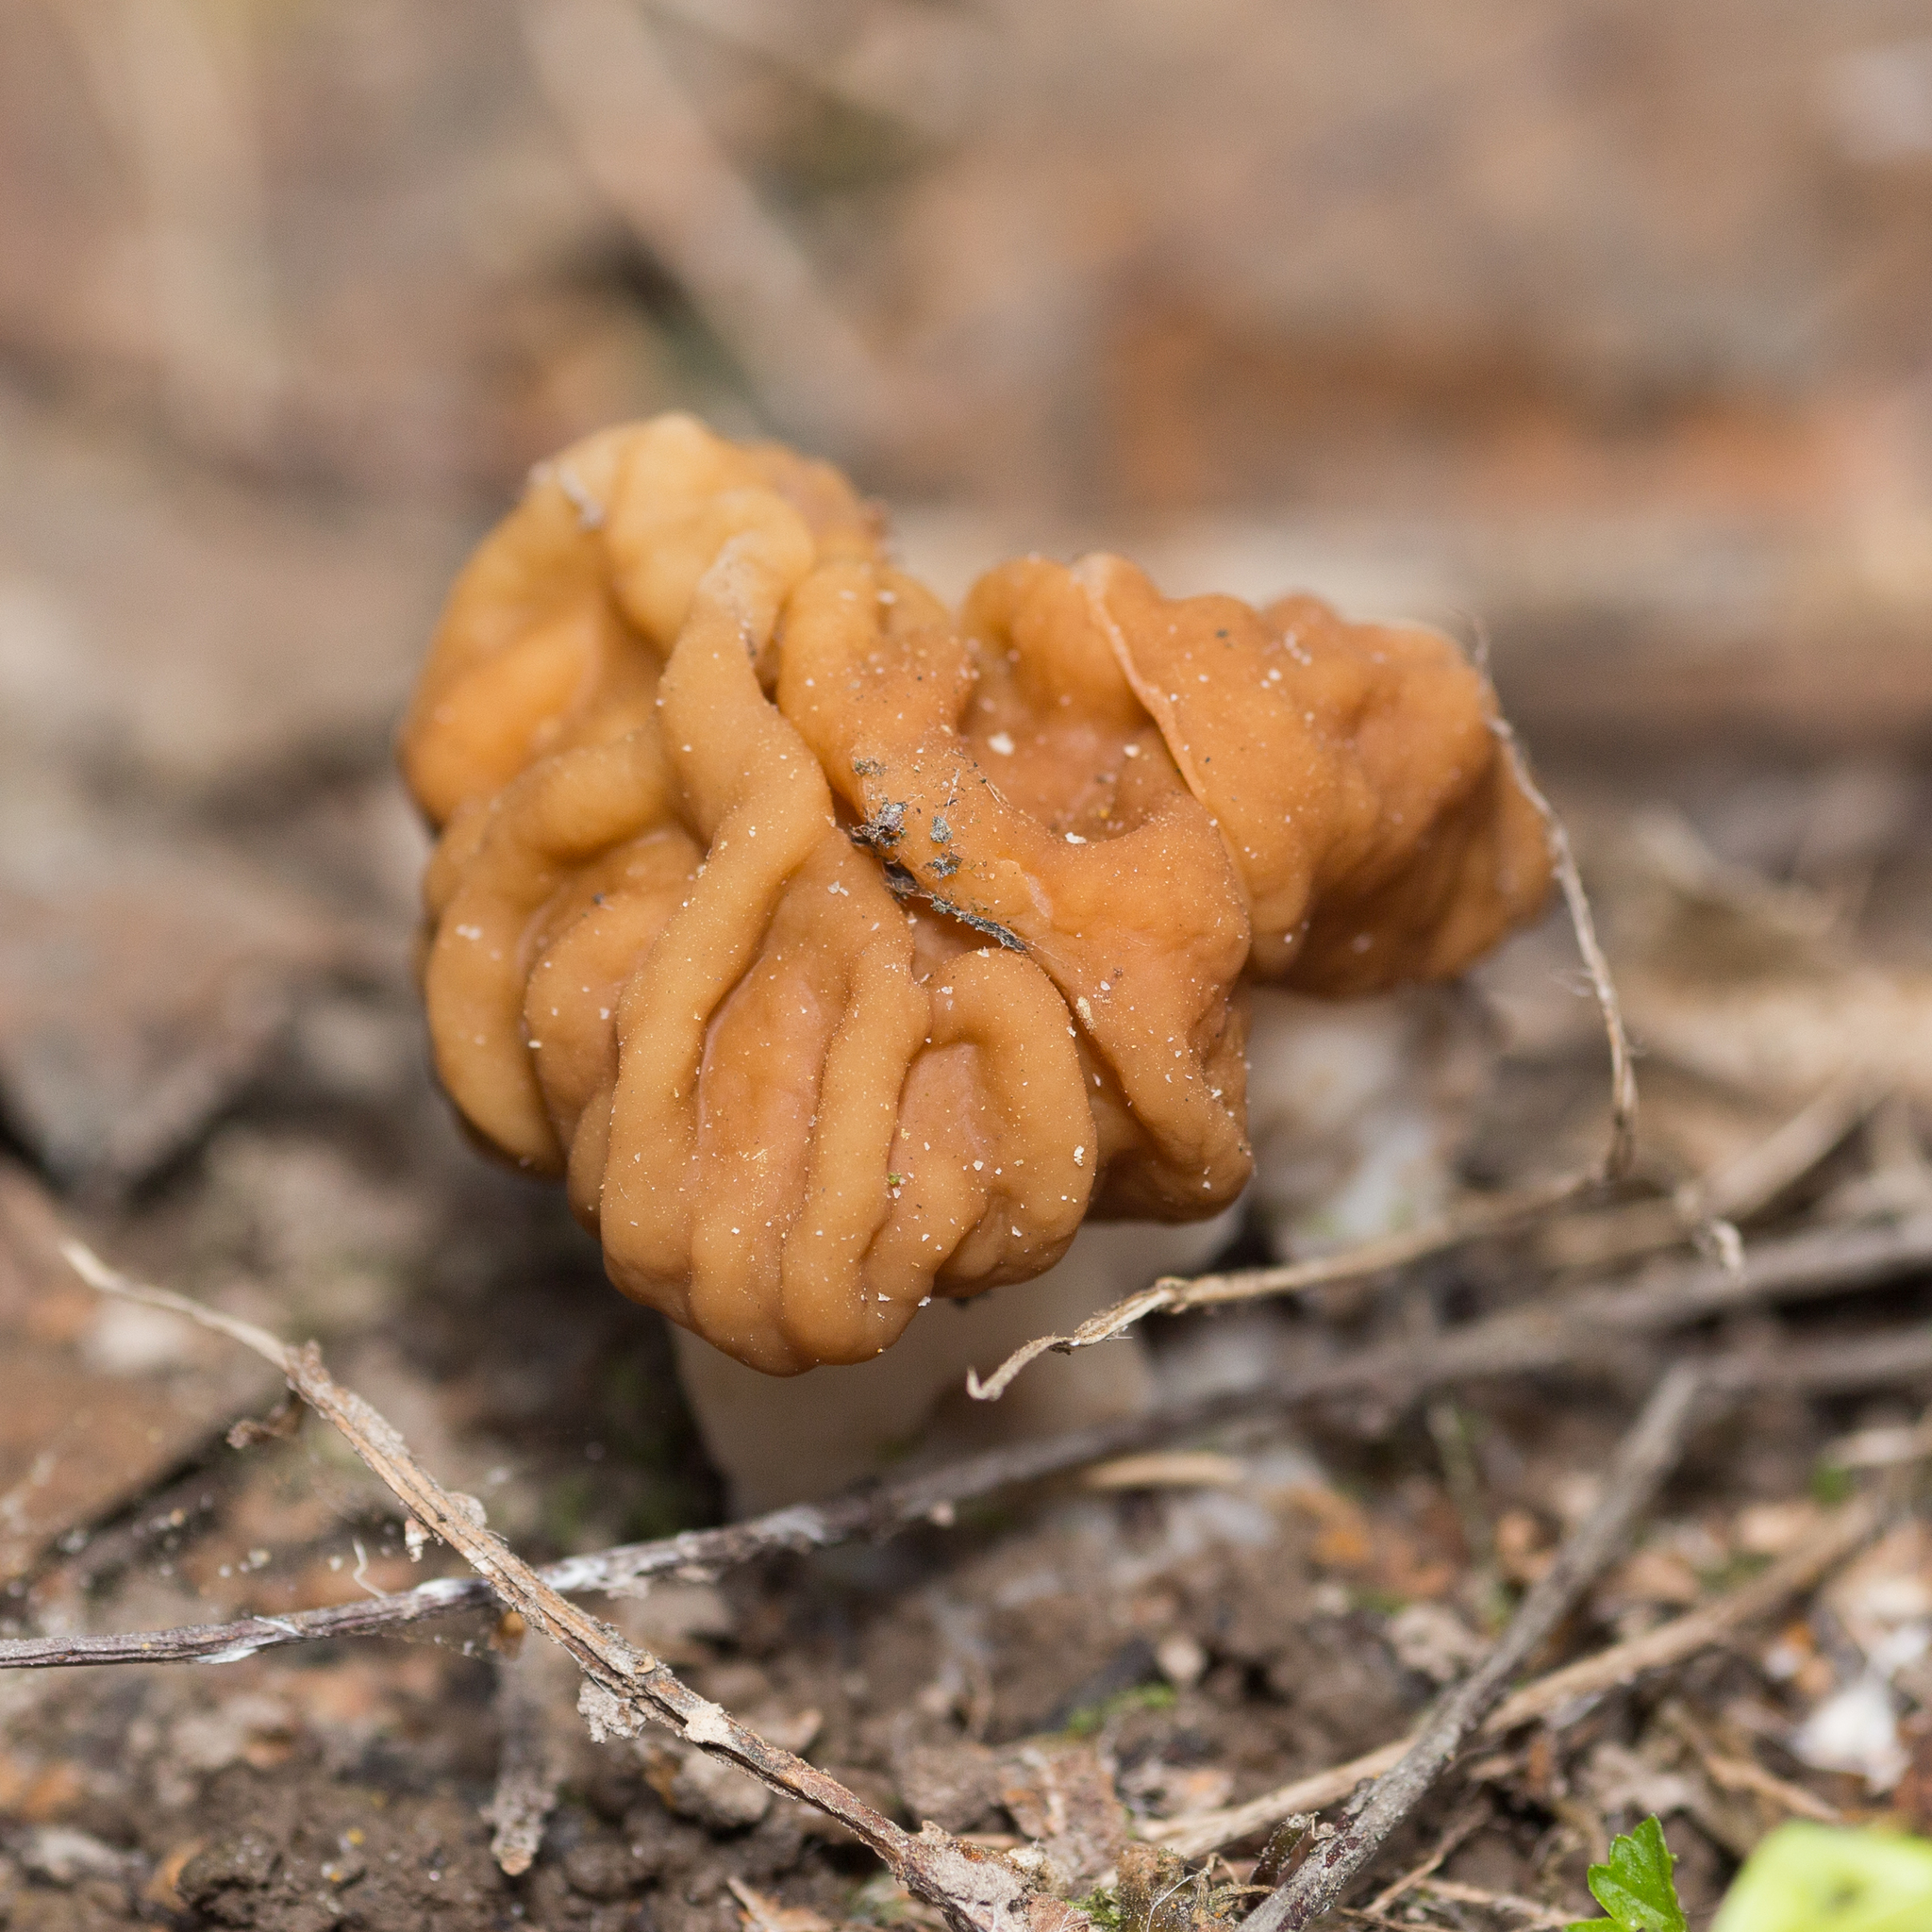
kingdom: Fungi
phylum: Ascomycota
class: Pezizomycetes
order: Pezizales
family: Discinaceae
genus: Gyromitra
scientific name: Gyromitra gigas
